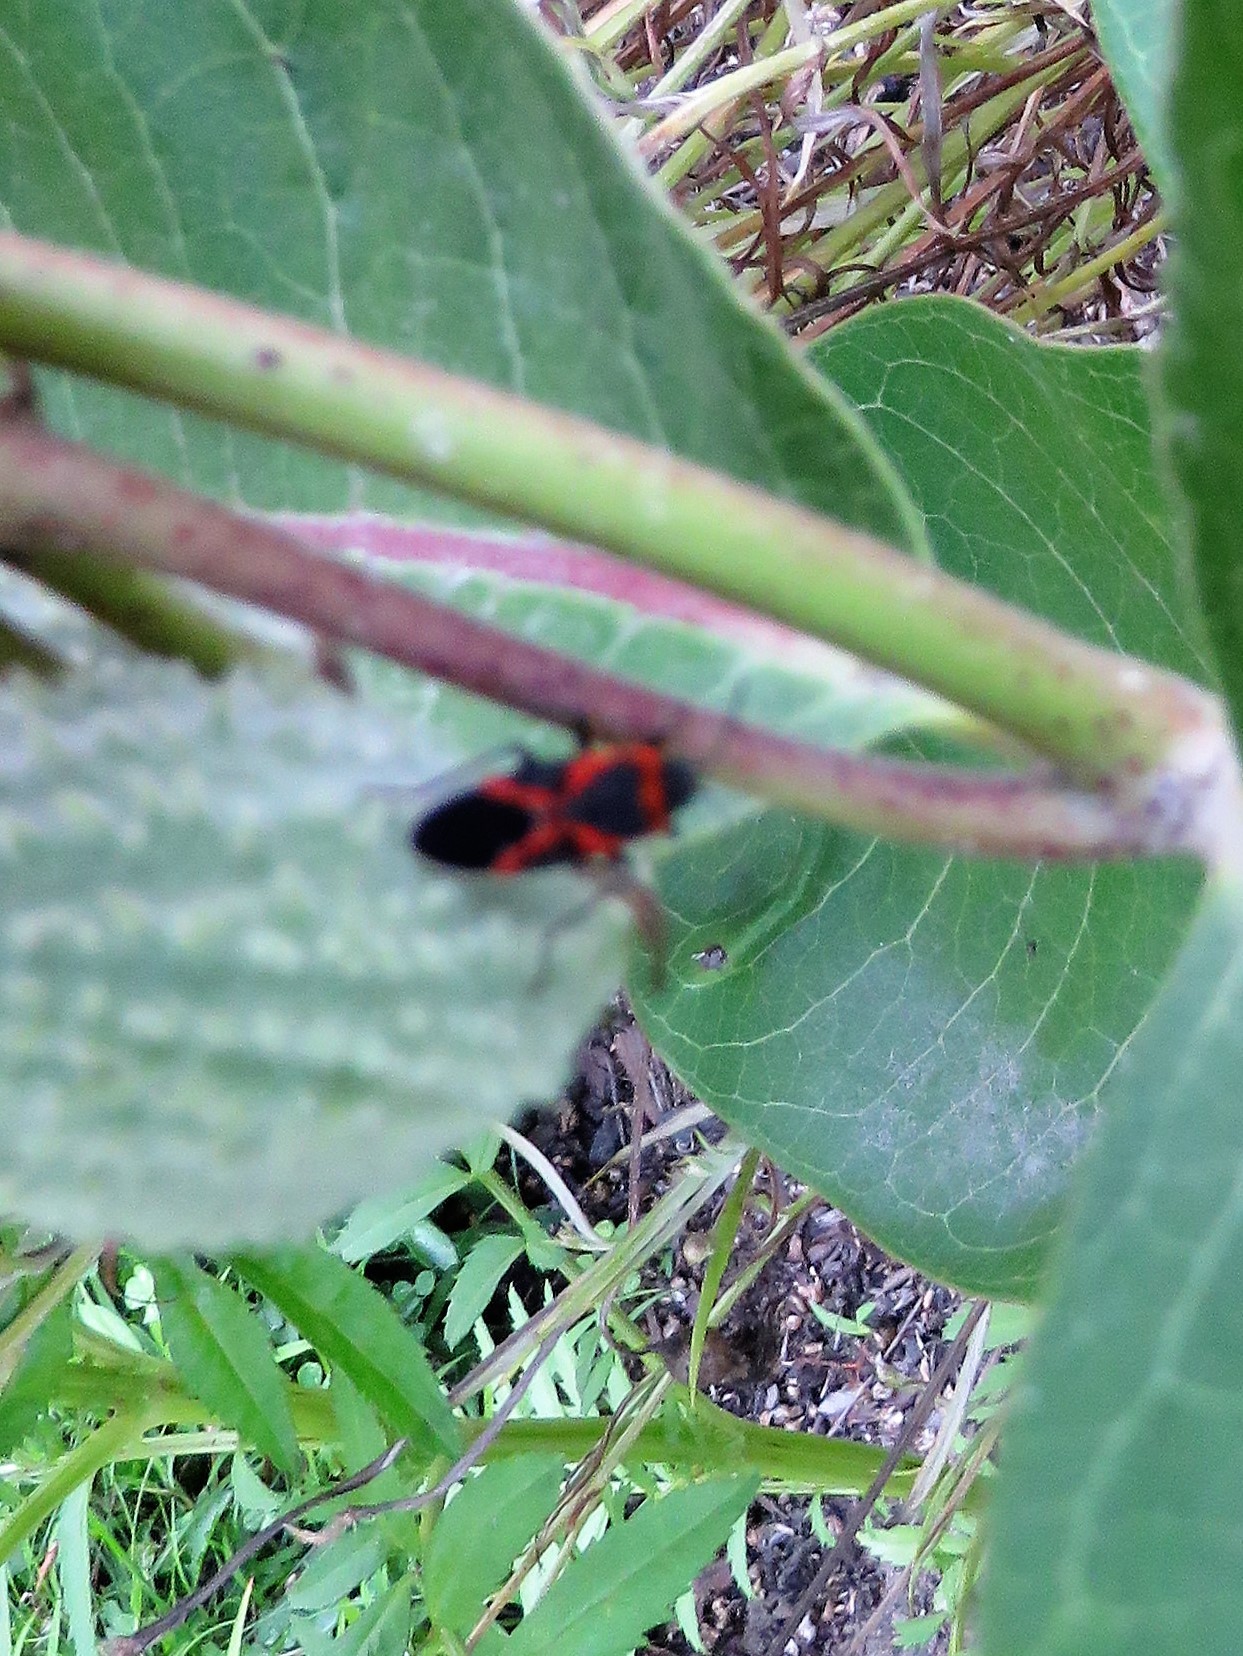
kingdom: Animalia
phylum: Arthropoda
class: Insecta
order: Hemiptera
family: Lygaeidae
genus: Lygaeus
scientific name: Lygaeus kalmii
